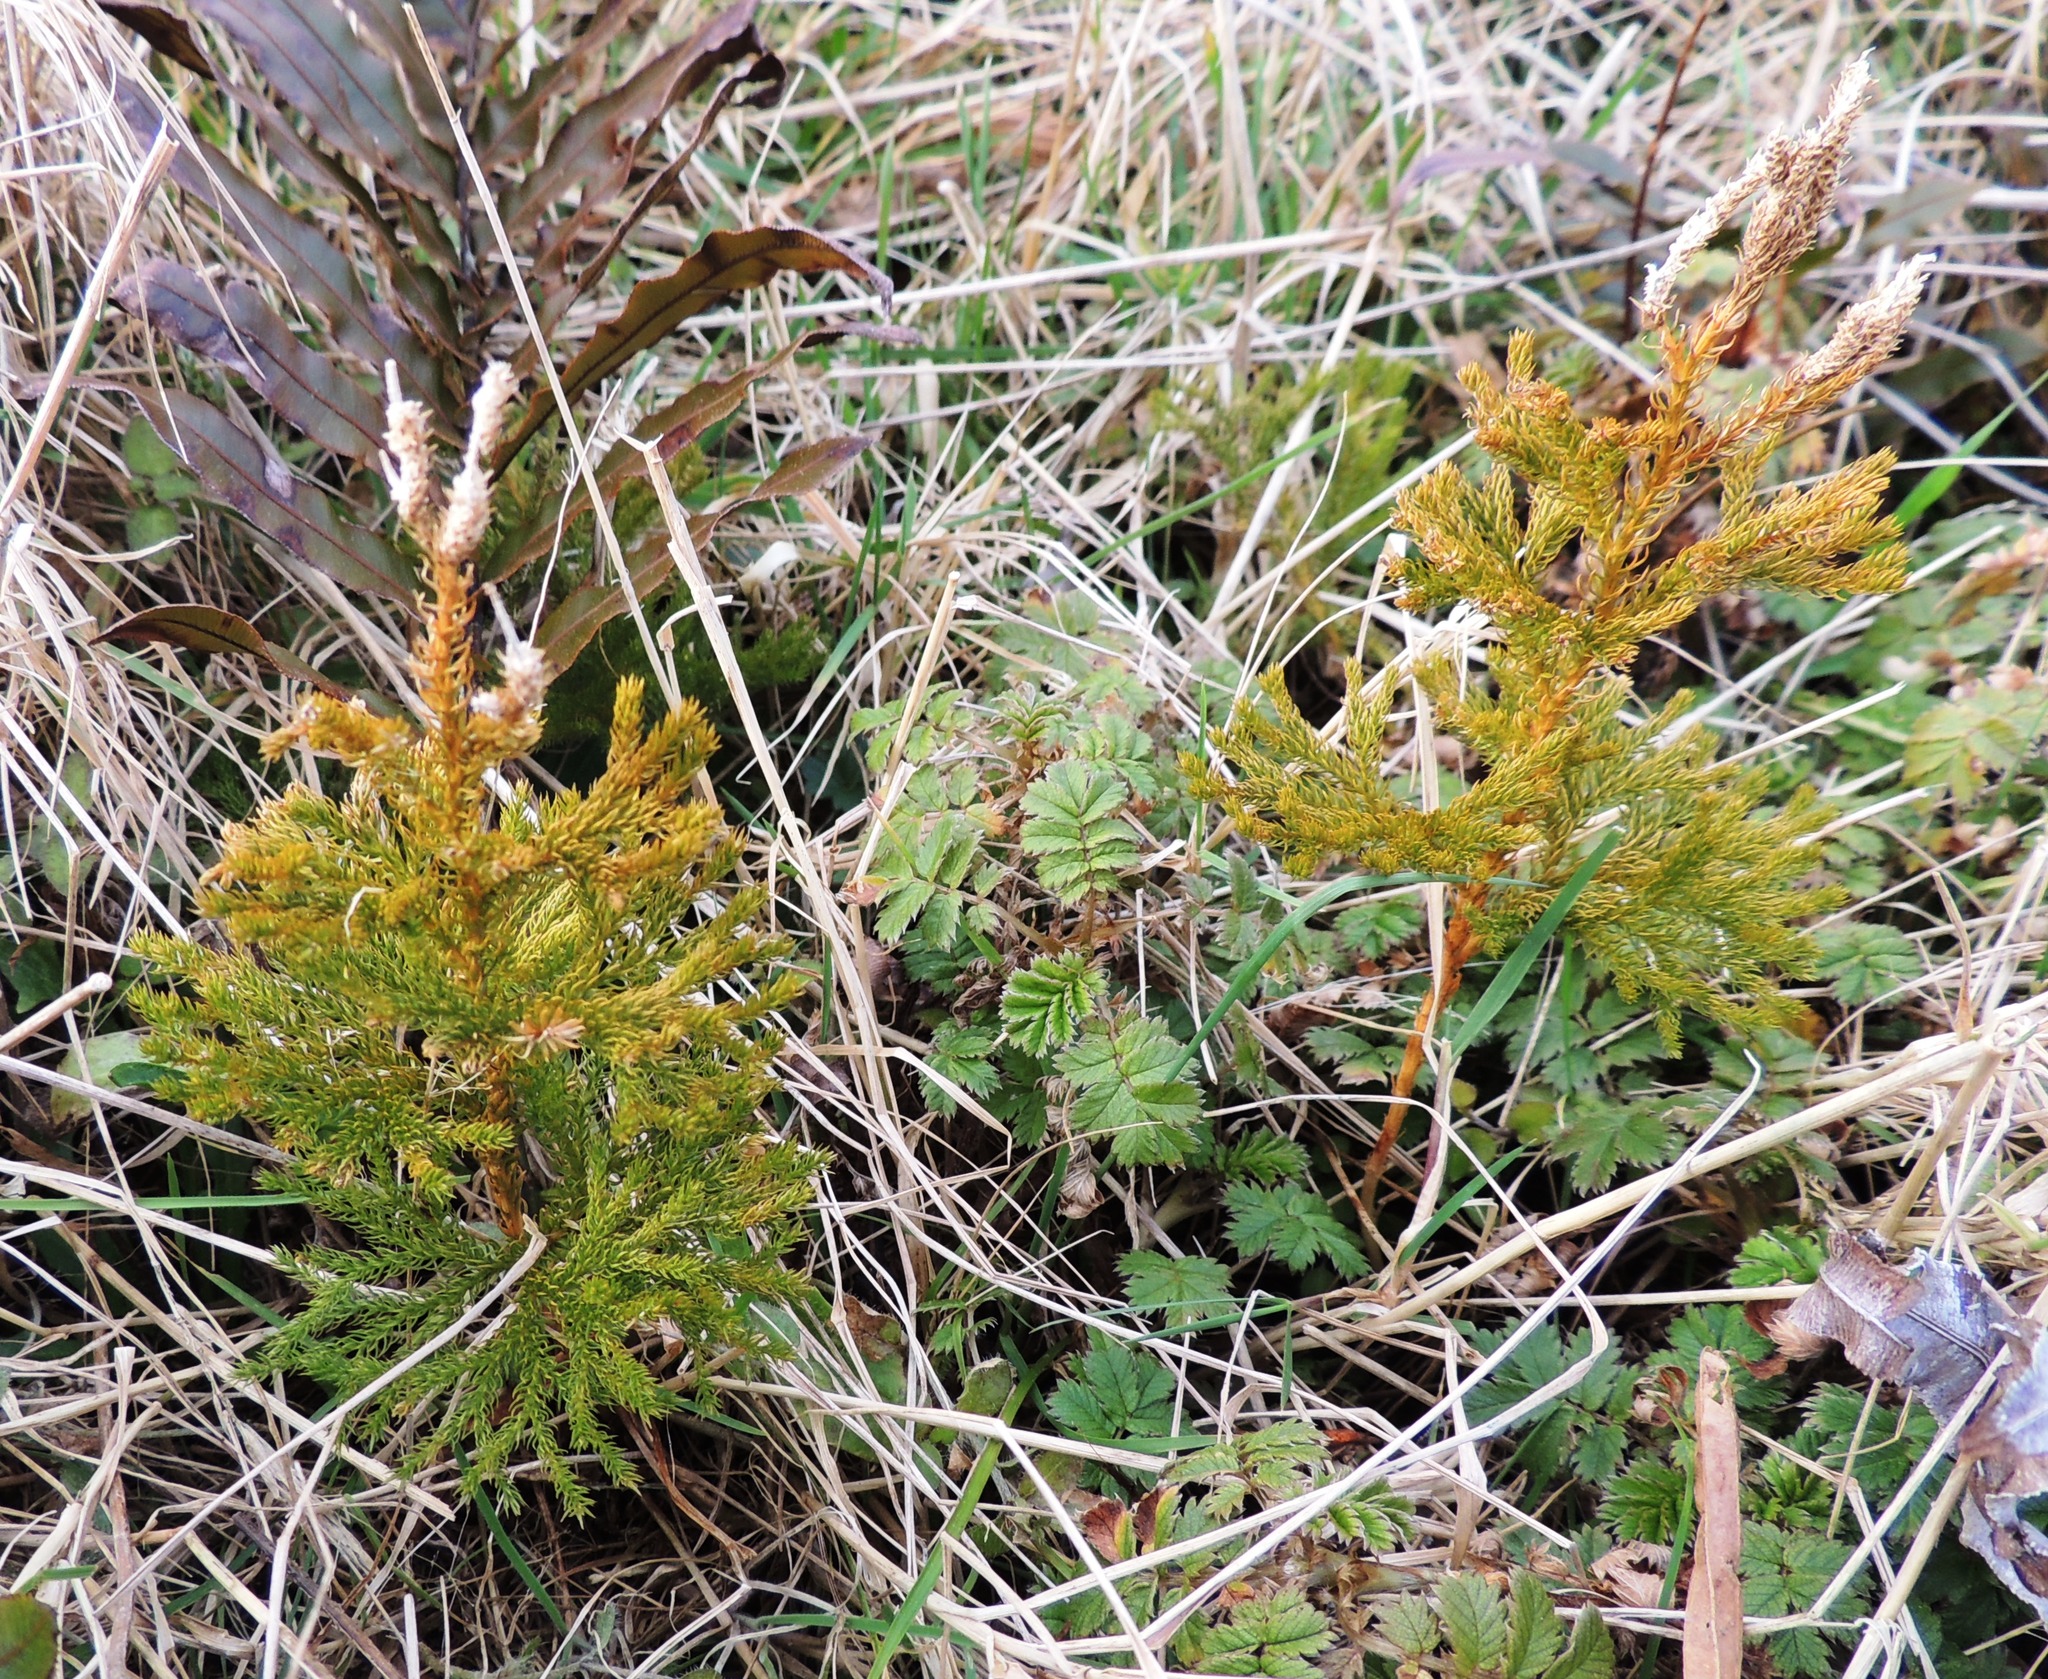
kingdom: Plantae
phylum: Tracheophyta
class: Lycopodiopsida
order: Lycopodiales
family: Lycopodiaceae
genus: Austrolycopodium
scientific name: Austrolycopodium fastigiatum
